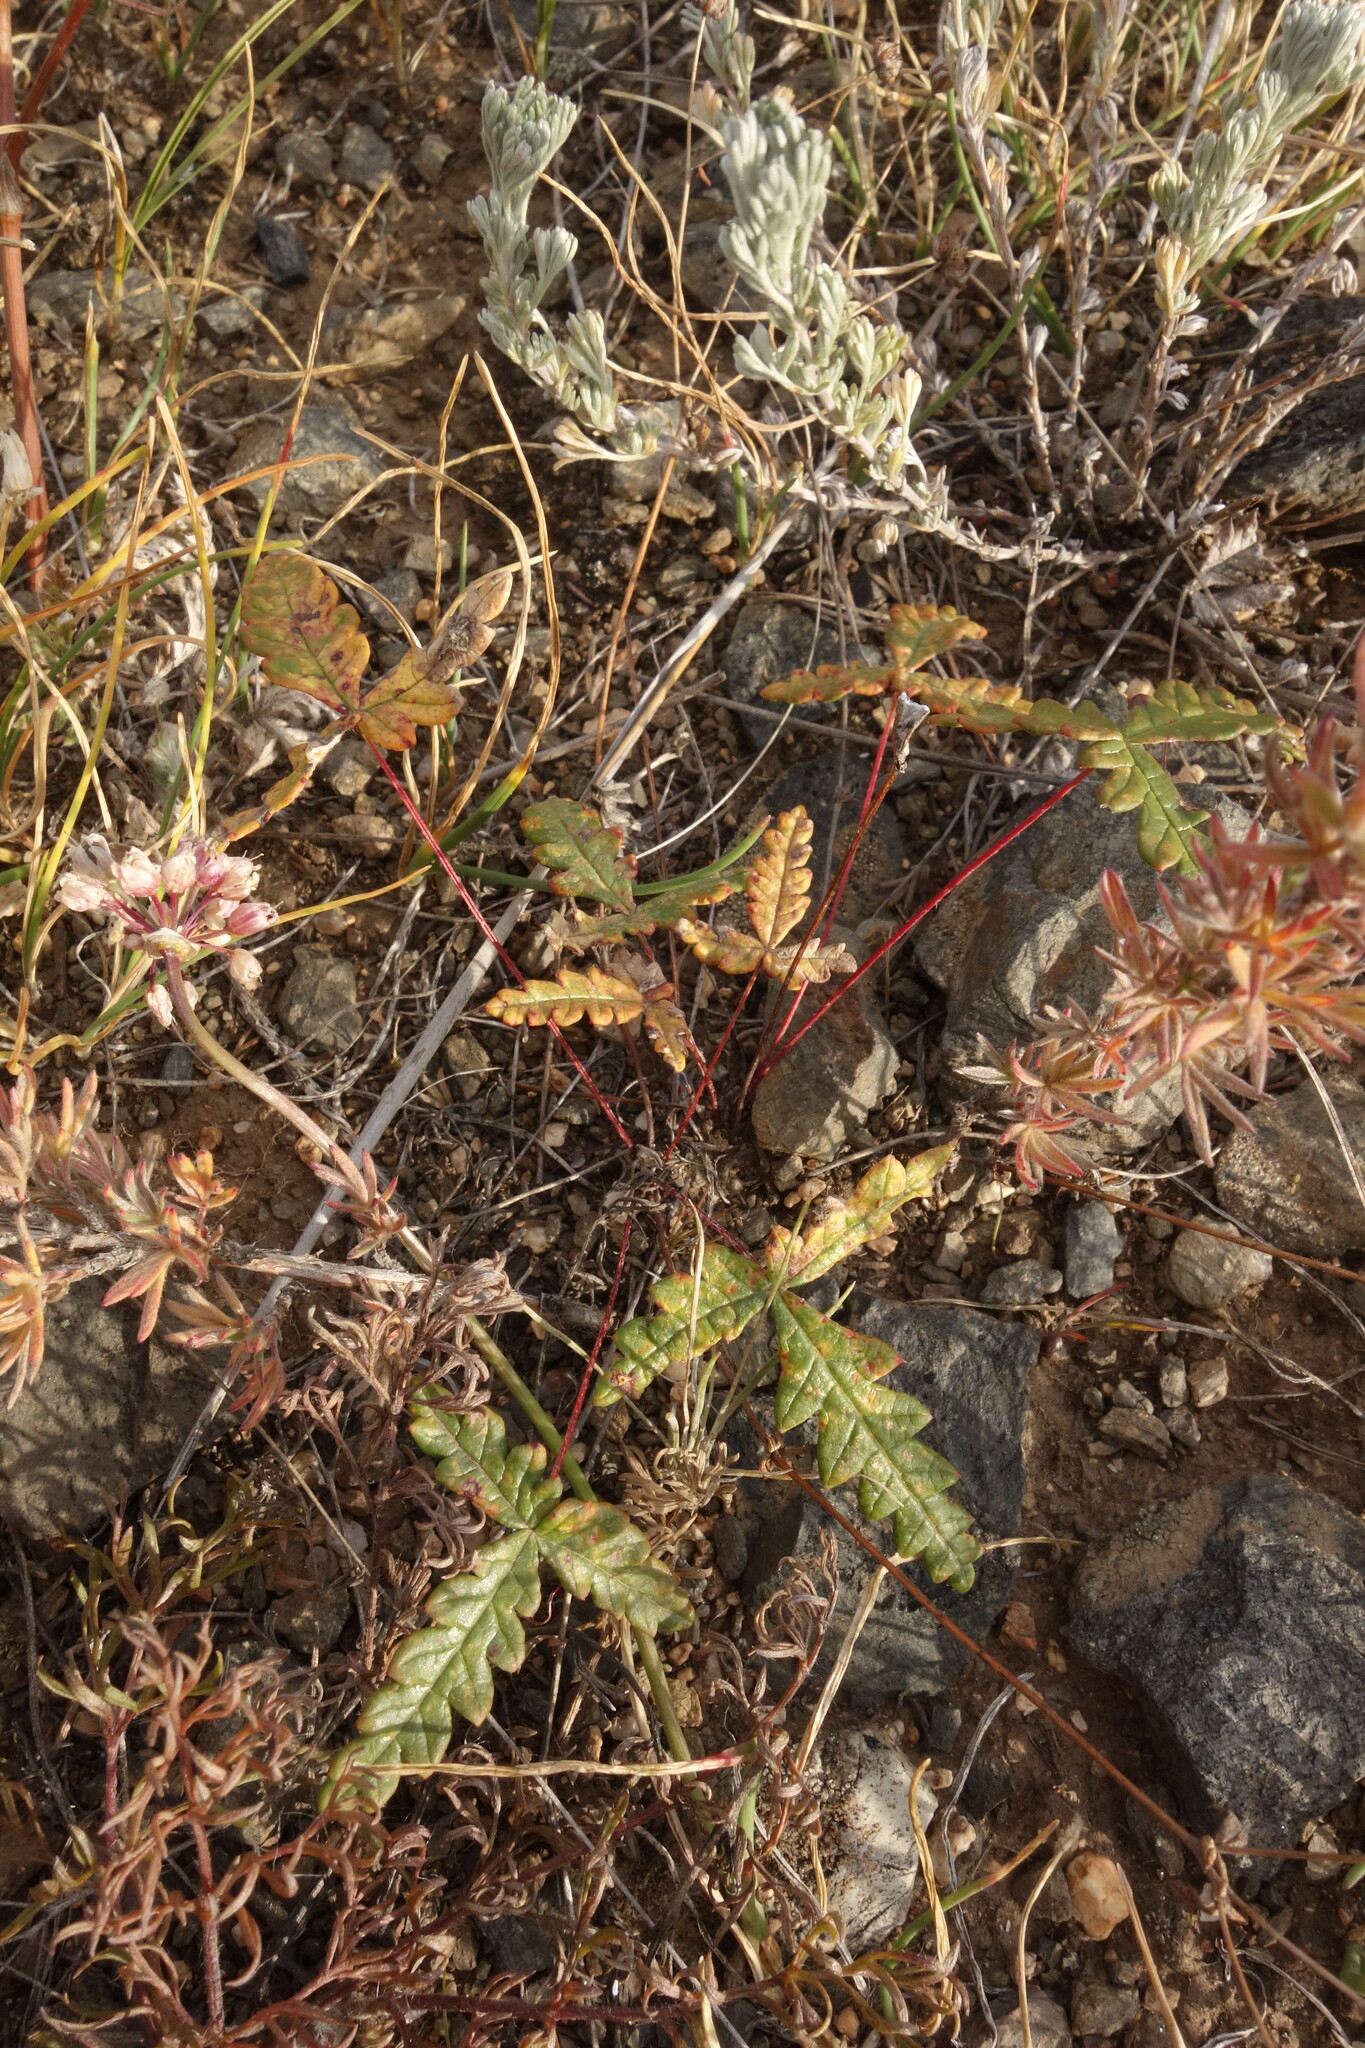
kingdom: Plantae
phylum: Tracheophyta
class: Magnoliopsida
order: Rosales
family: Rosaceae
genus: Potentilla
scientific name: Potentilla
